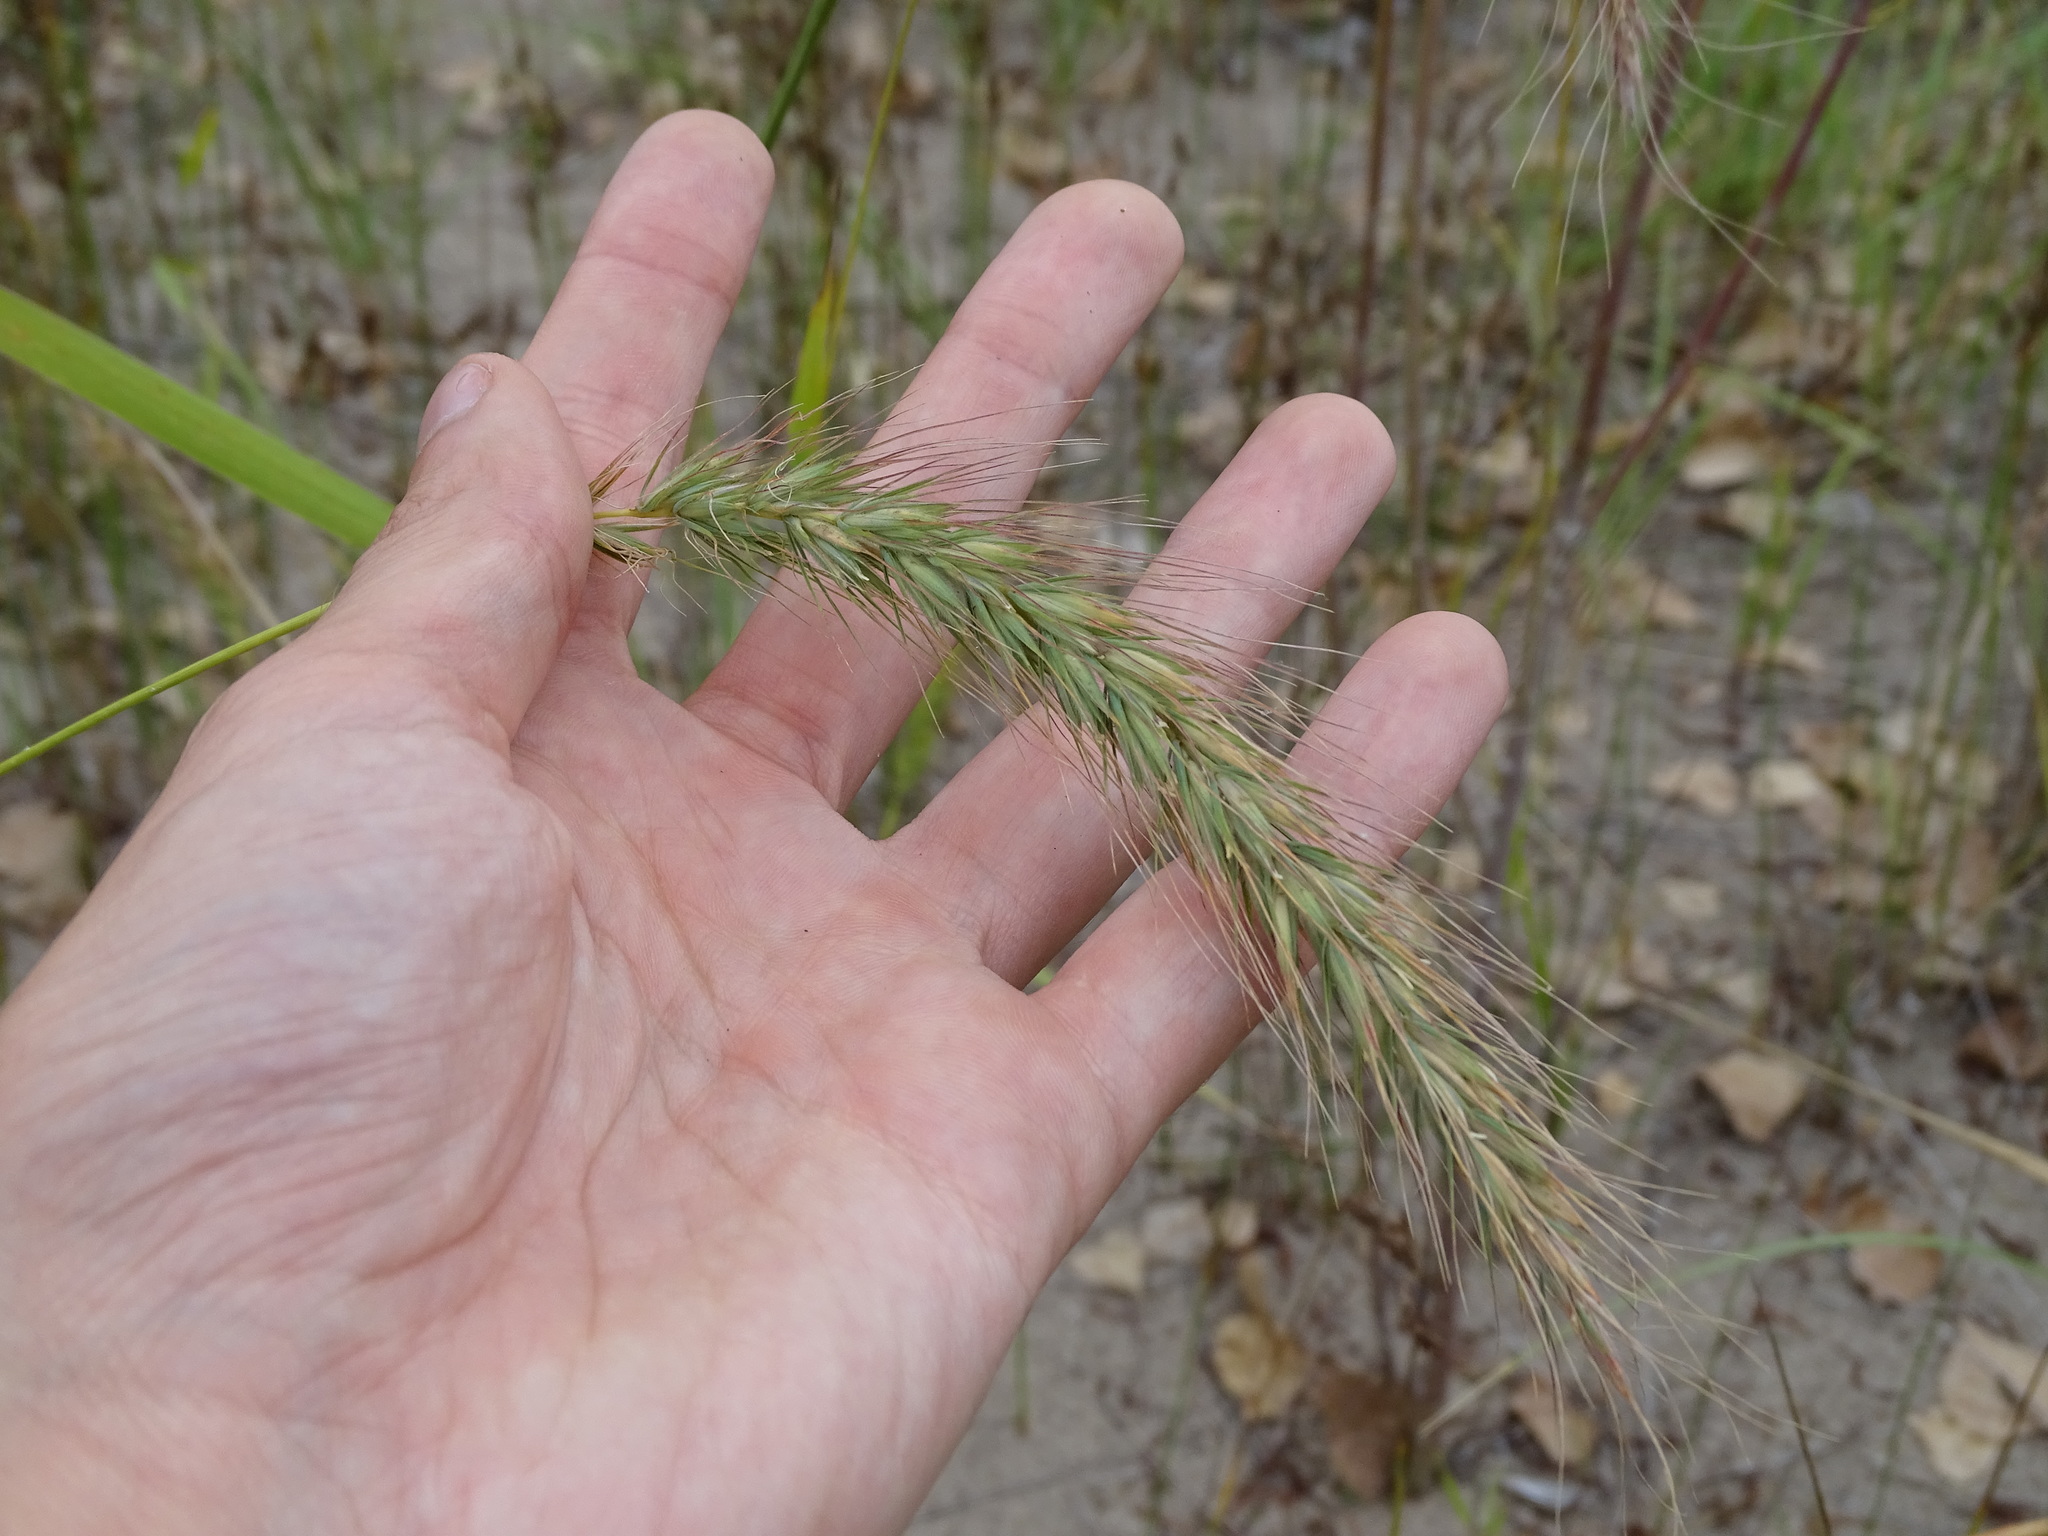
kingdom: Plantae
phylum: Tracheophyta
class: Liliopsida
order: Poales
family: Poaceae
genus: Elymus
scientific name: Elymus canadensis
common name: Canada wild rye
